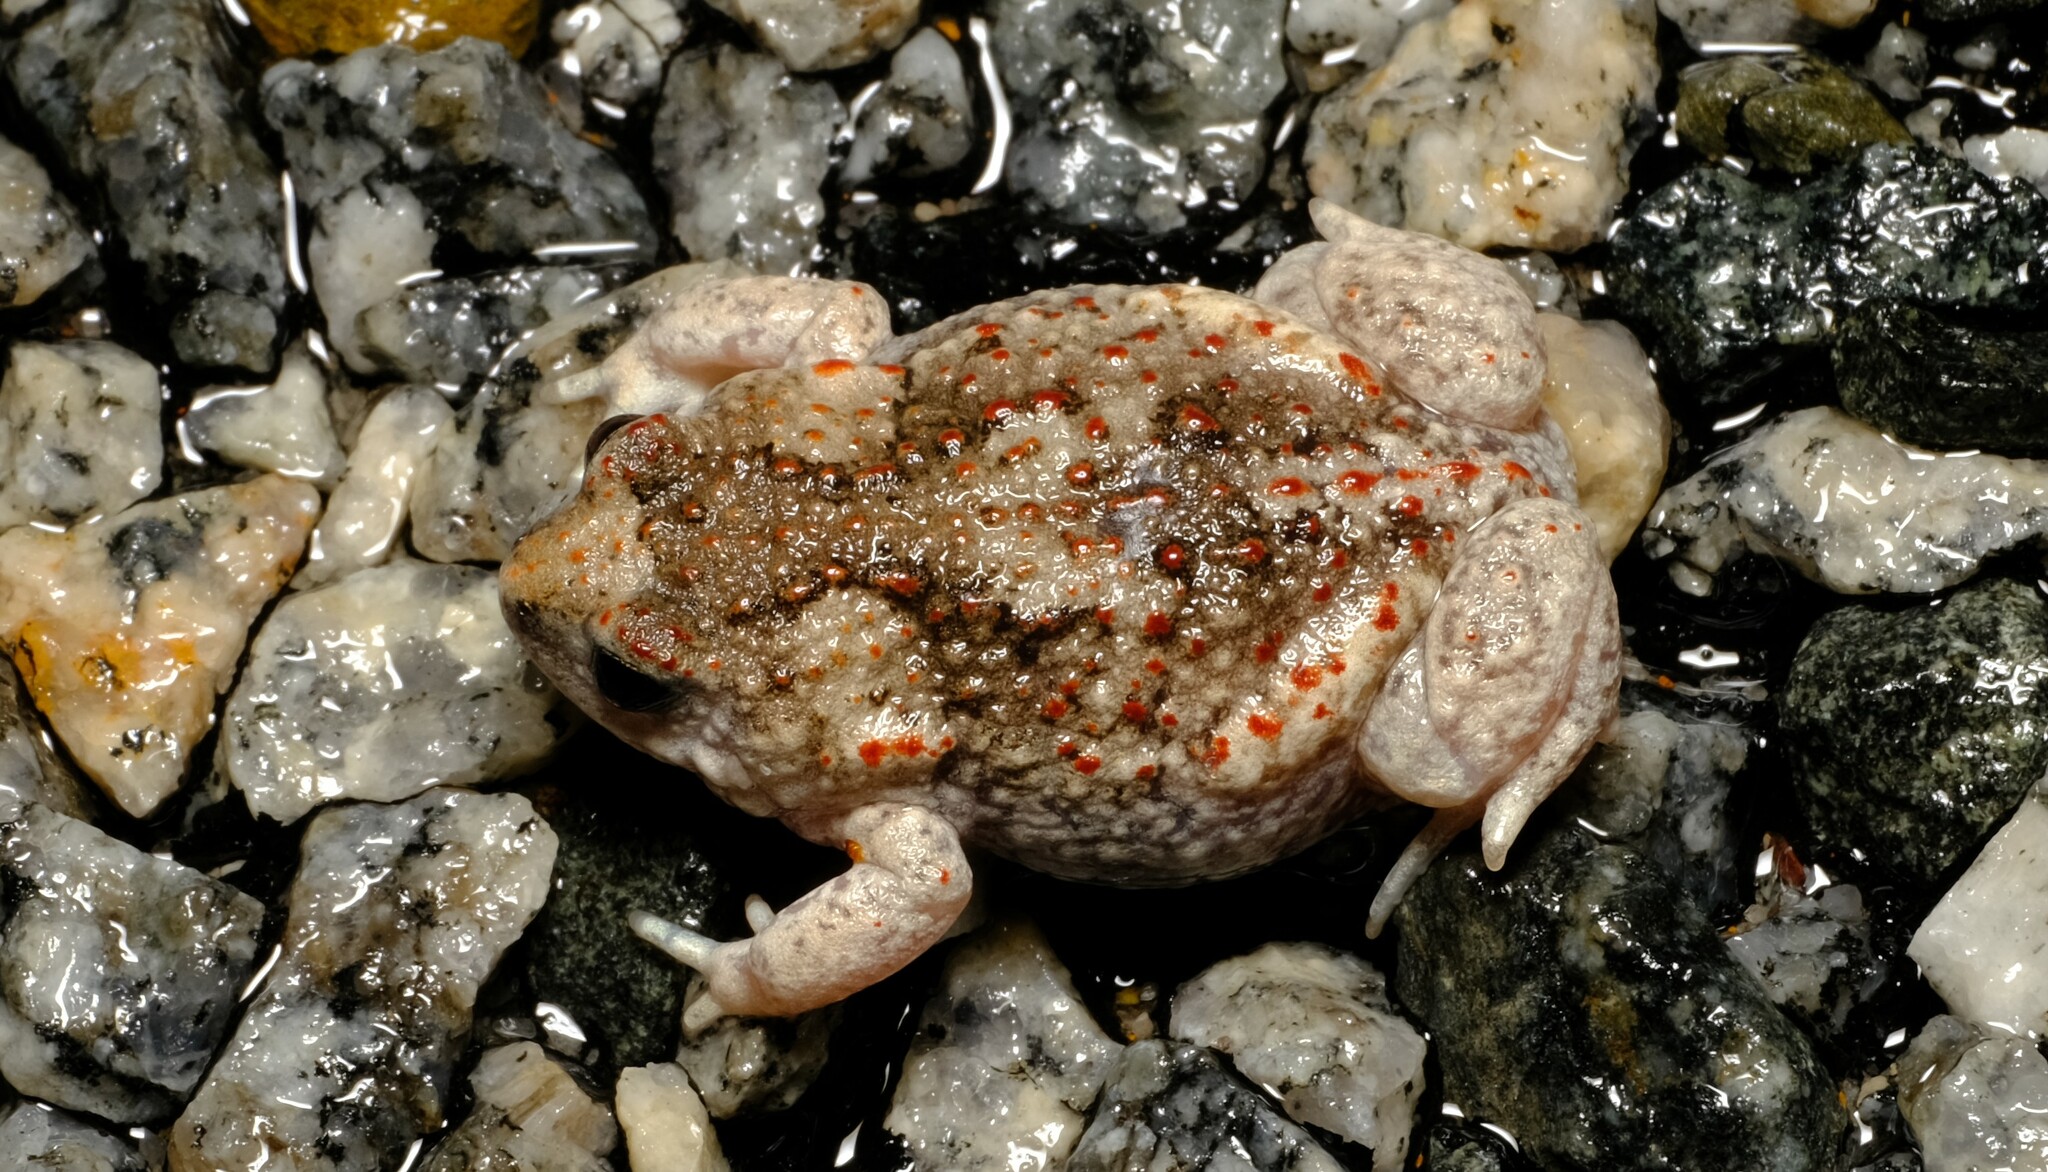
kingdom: Animalia
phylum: Chordata
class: Amphibia
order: Anura
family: Myobatrachidae
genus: Pseudophryne
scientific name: Pseudophryne guentheri
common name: Günther’s toadlet
